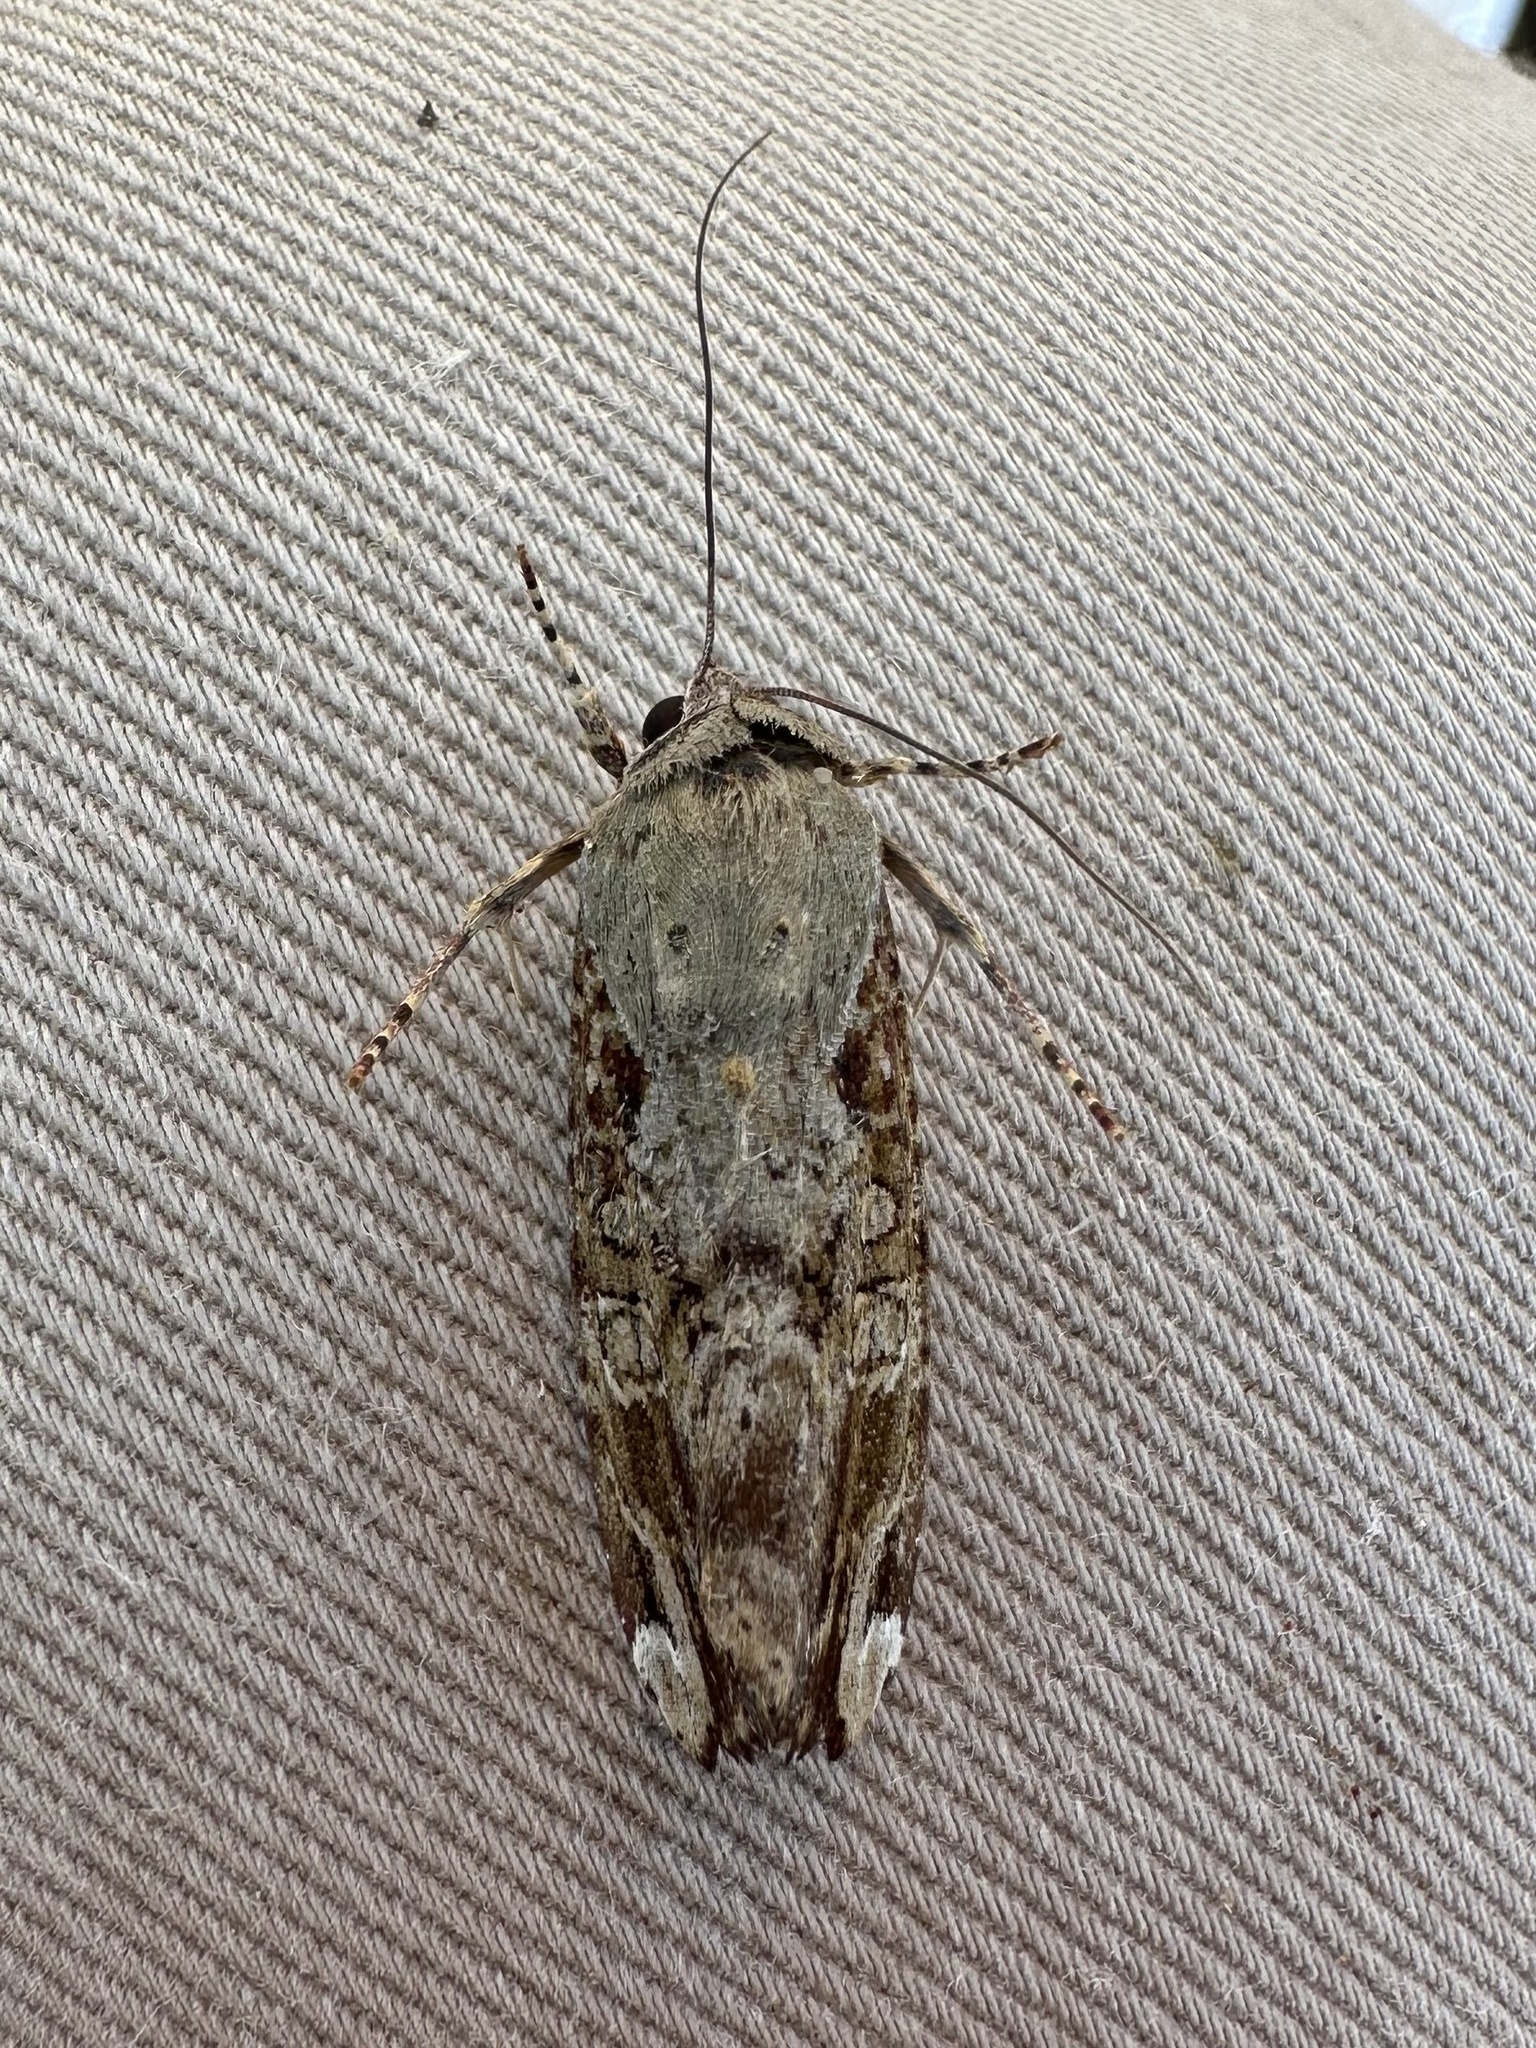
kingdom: Animalia
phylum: Arthropoda
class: Insecta
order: Lepidoptera
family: Noctuidae
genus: Magusa
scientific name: Magusa divaricata
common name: Orb narrow-winged moth
